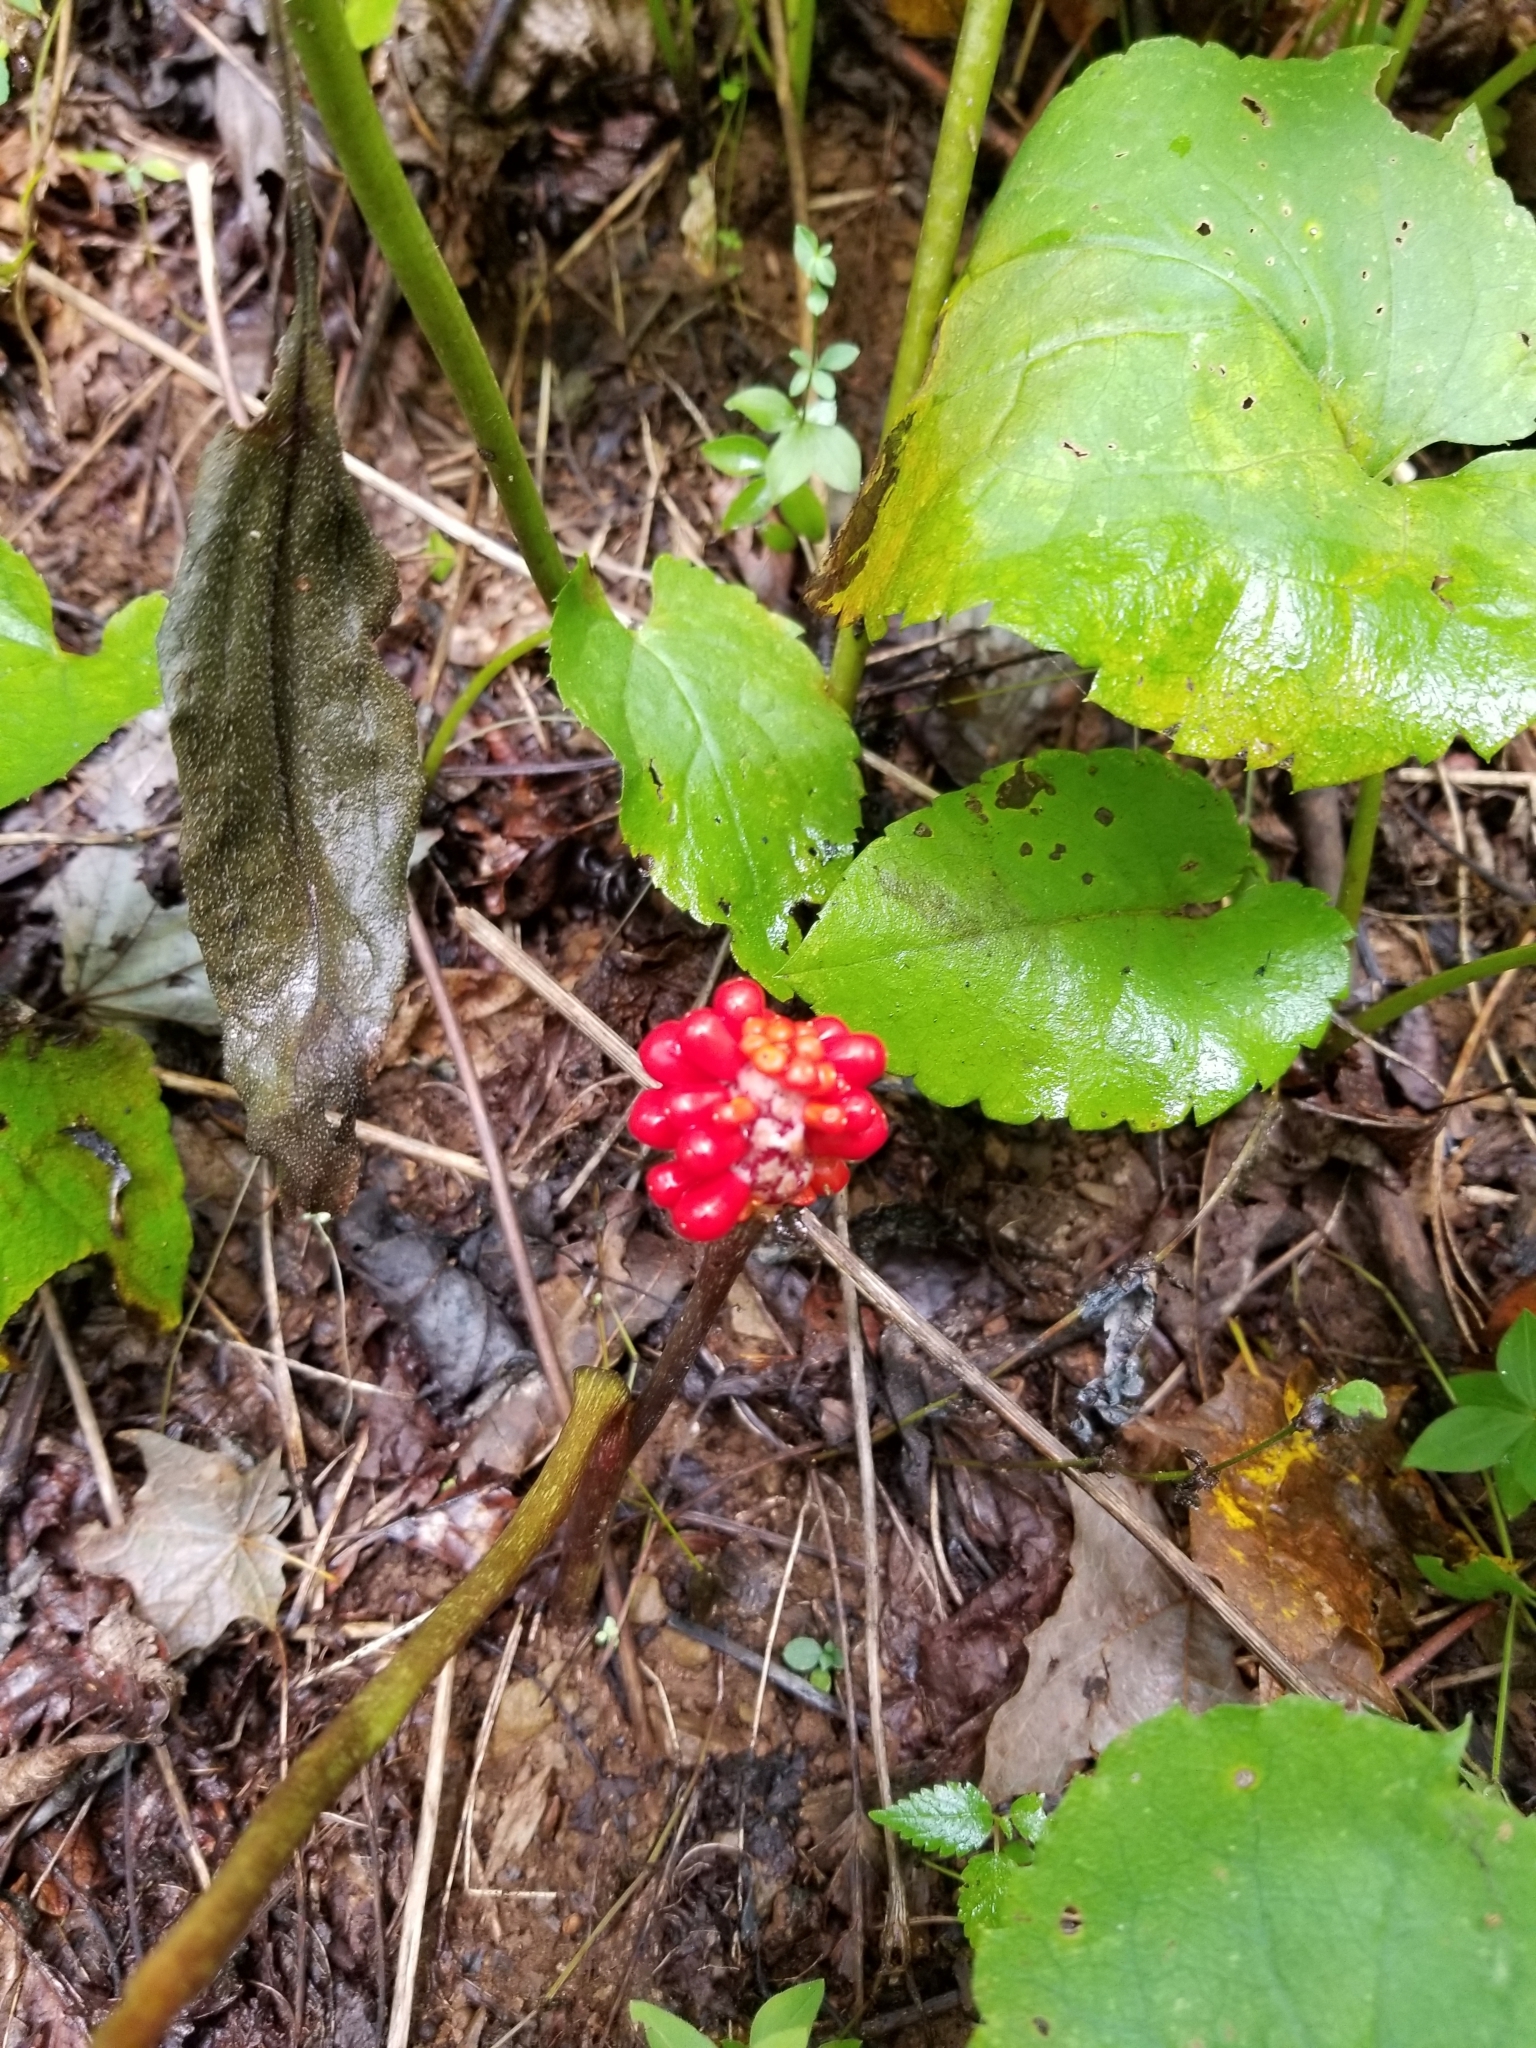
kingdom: Plantae
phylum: Tracheophyta
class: Liliopsida
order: Alismatales
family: Araceae
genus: Arisaema
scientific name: Arisaema triphyllum
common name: Jack-in-the-pulpit
